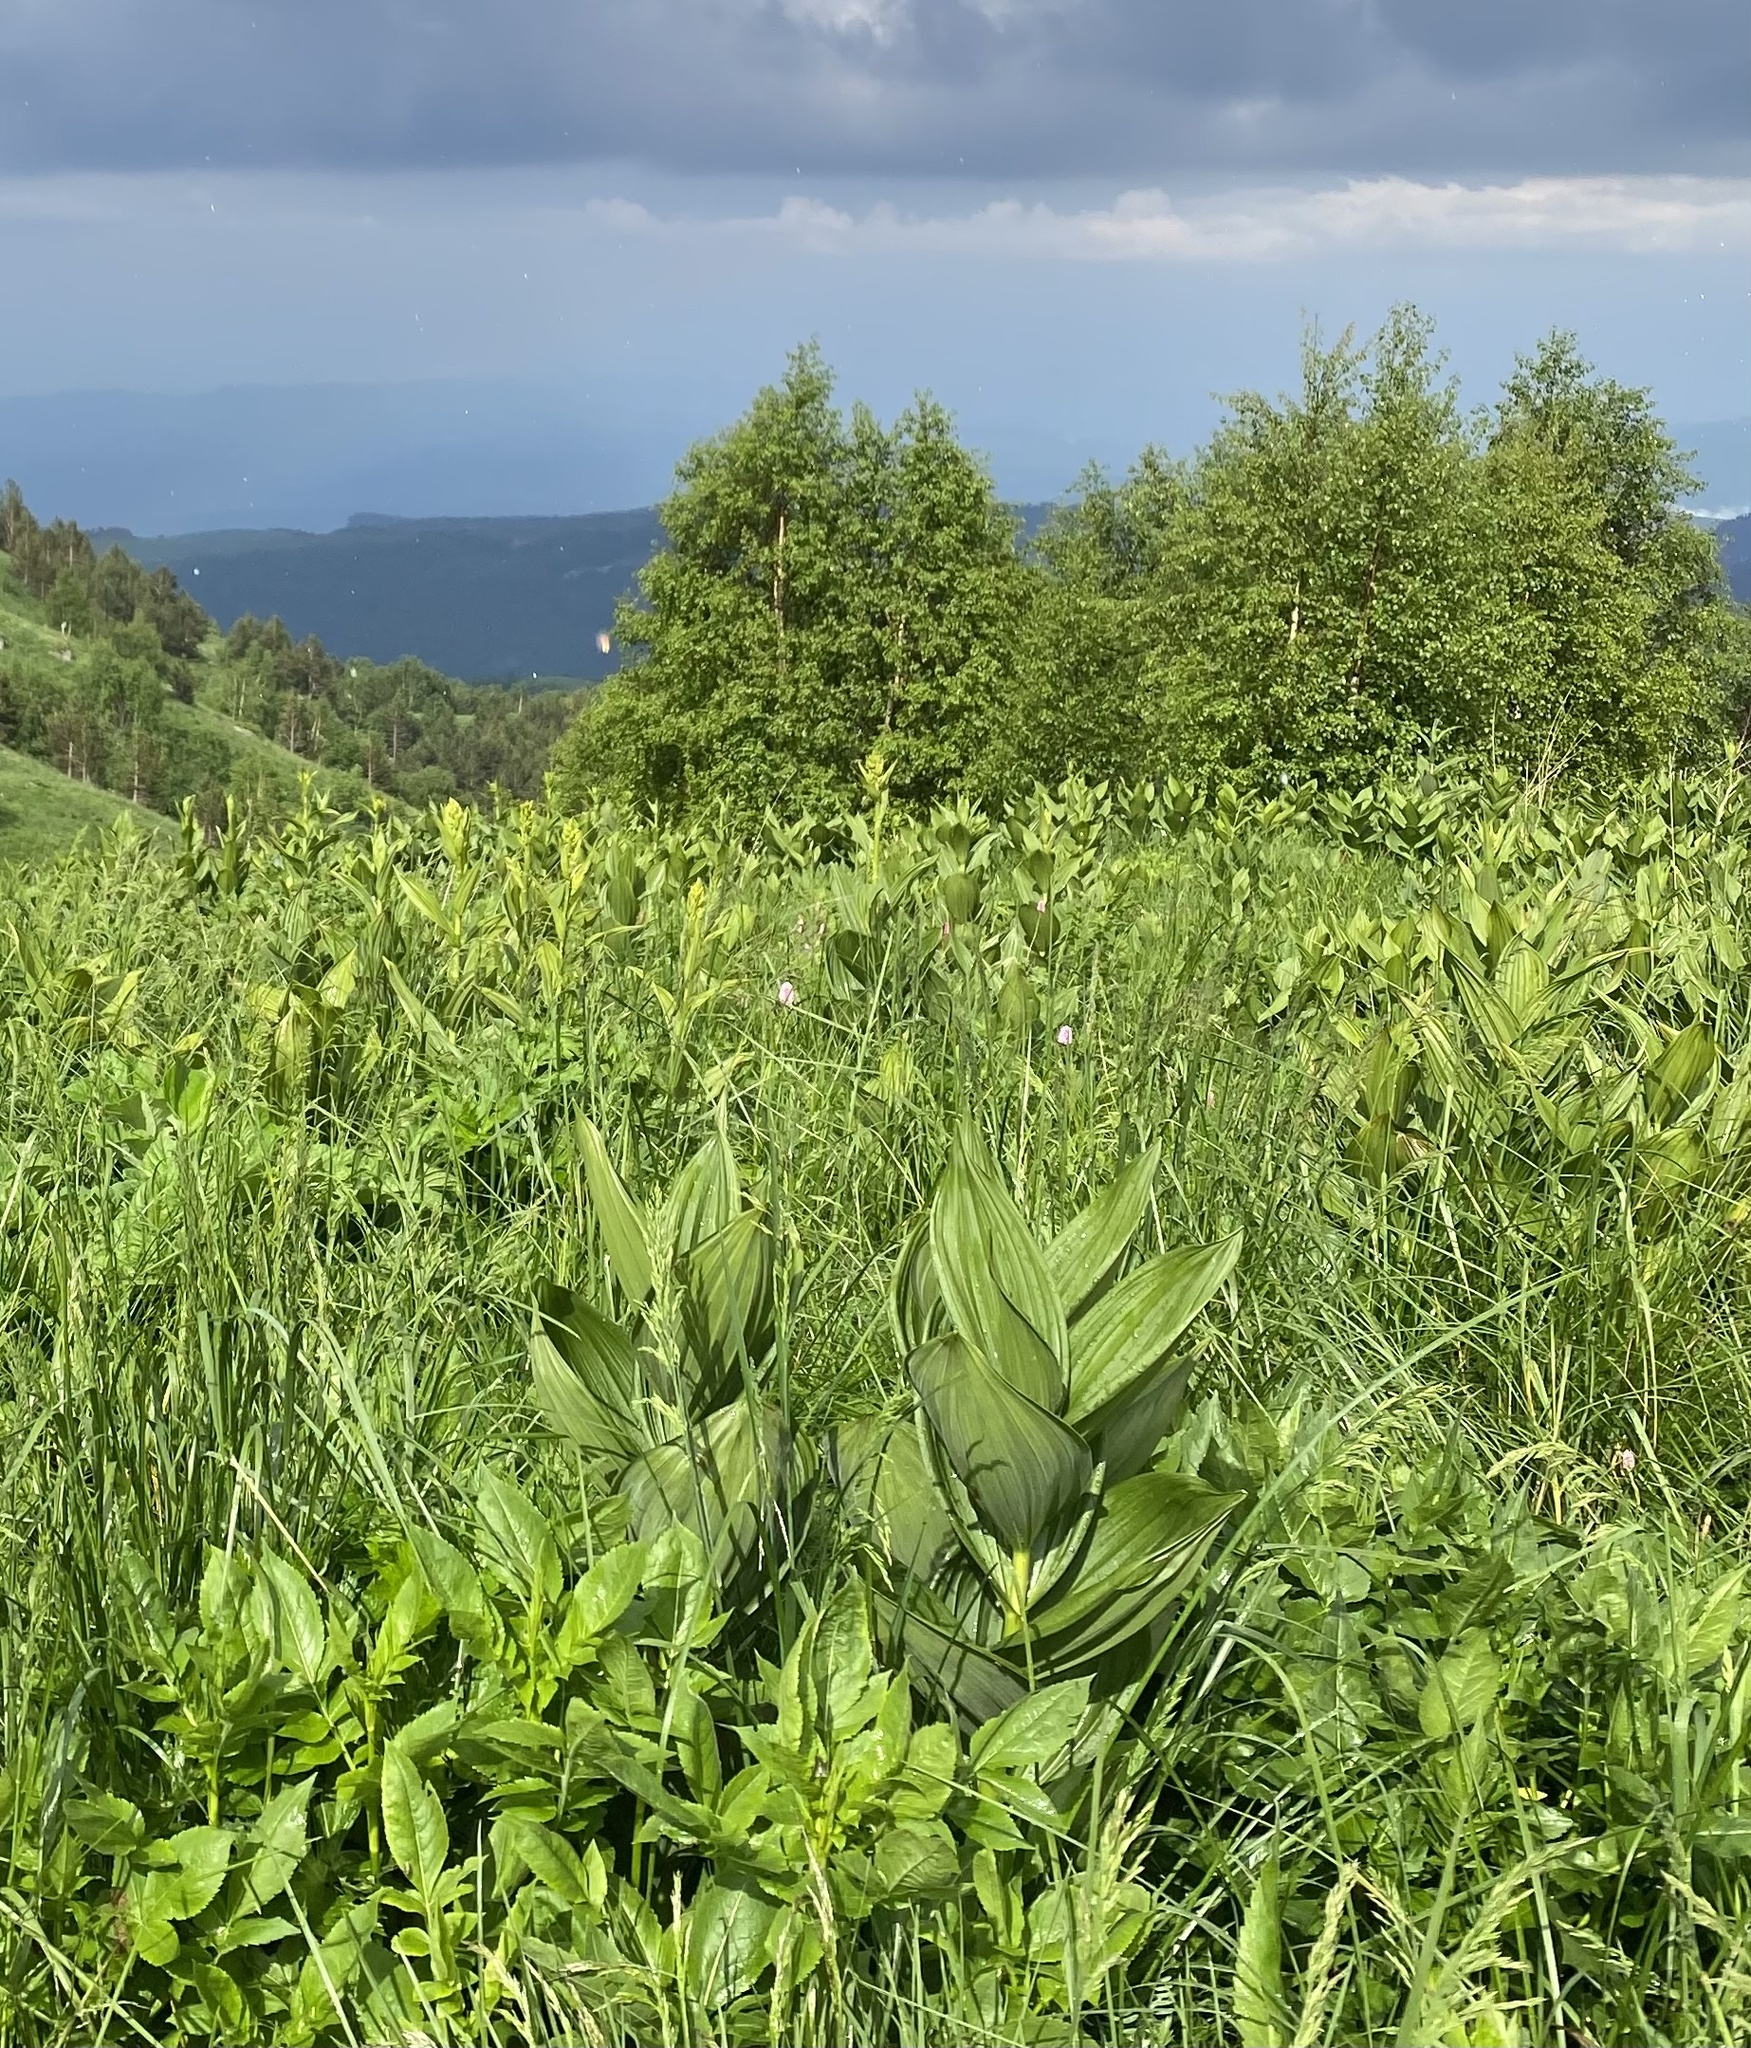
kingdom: Plantae
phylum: Tracheophyta
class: Liliopsida
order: Liliales
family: Melanthiaceae
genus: Veratrum
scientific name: Veratrum lobelianum
